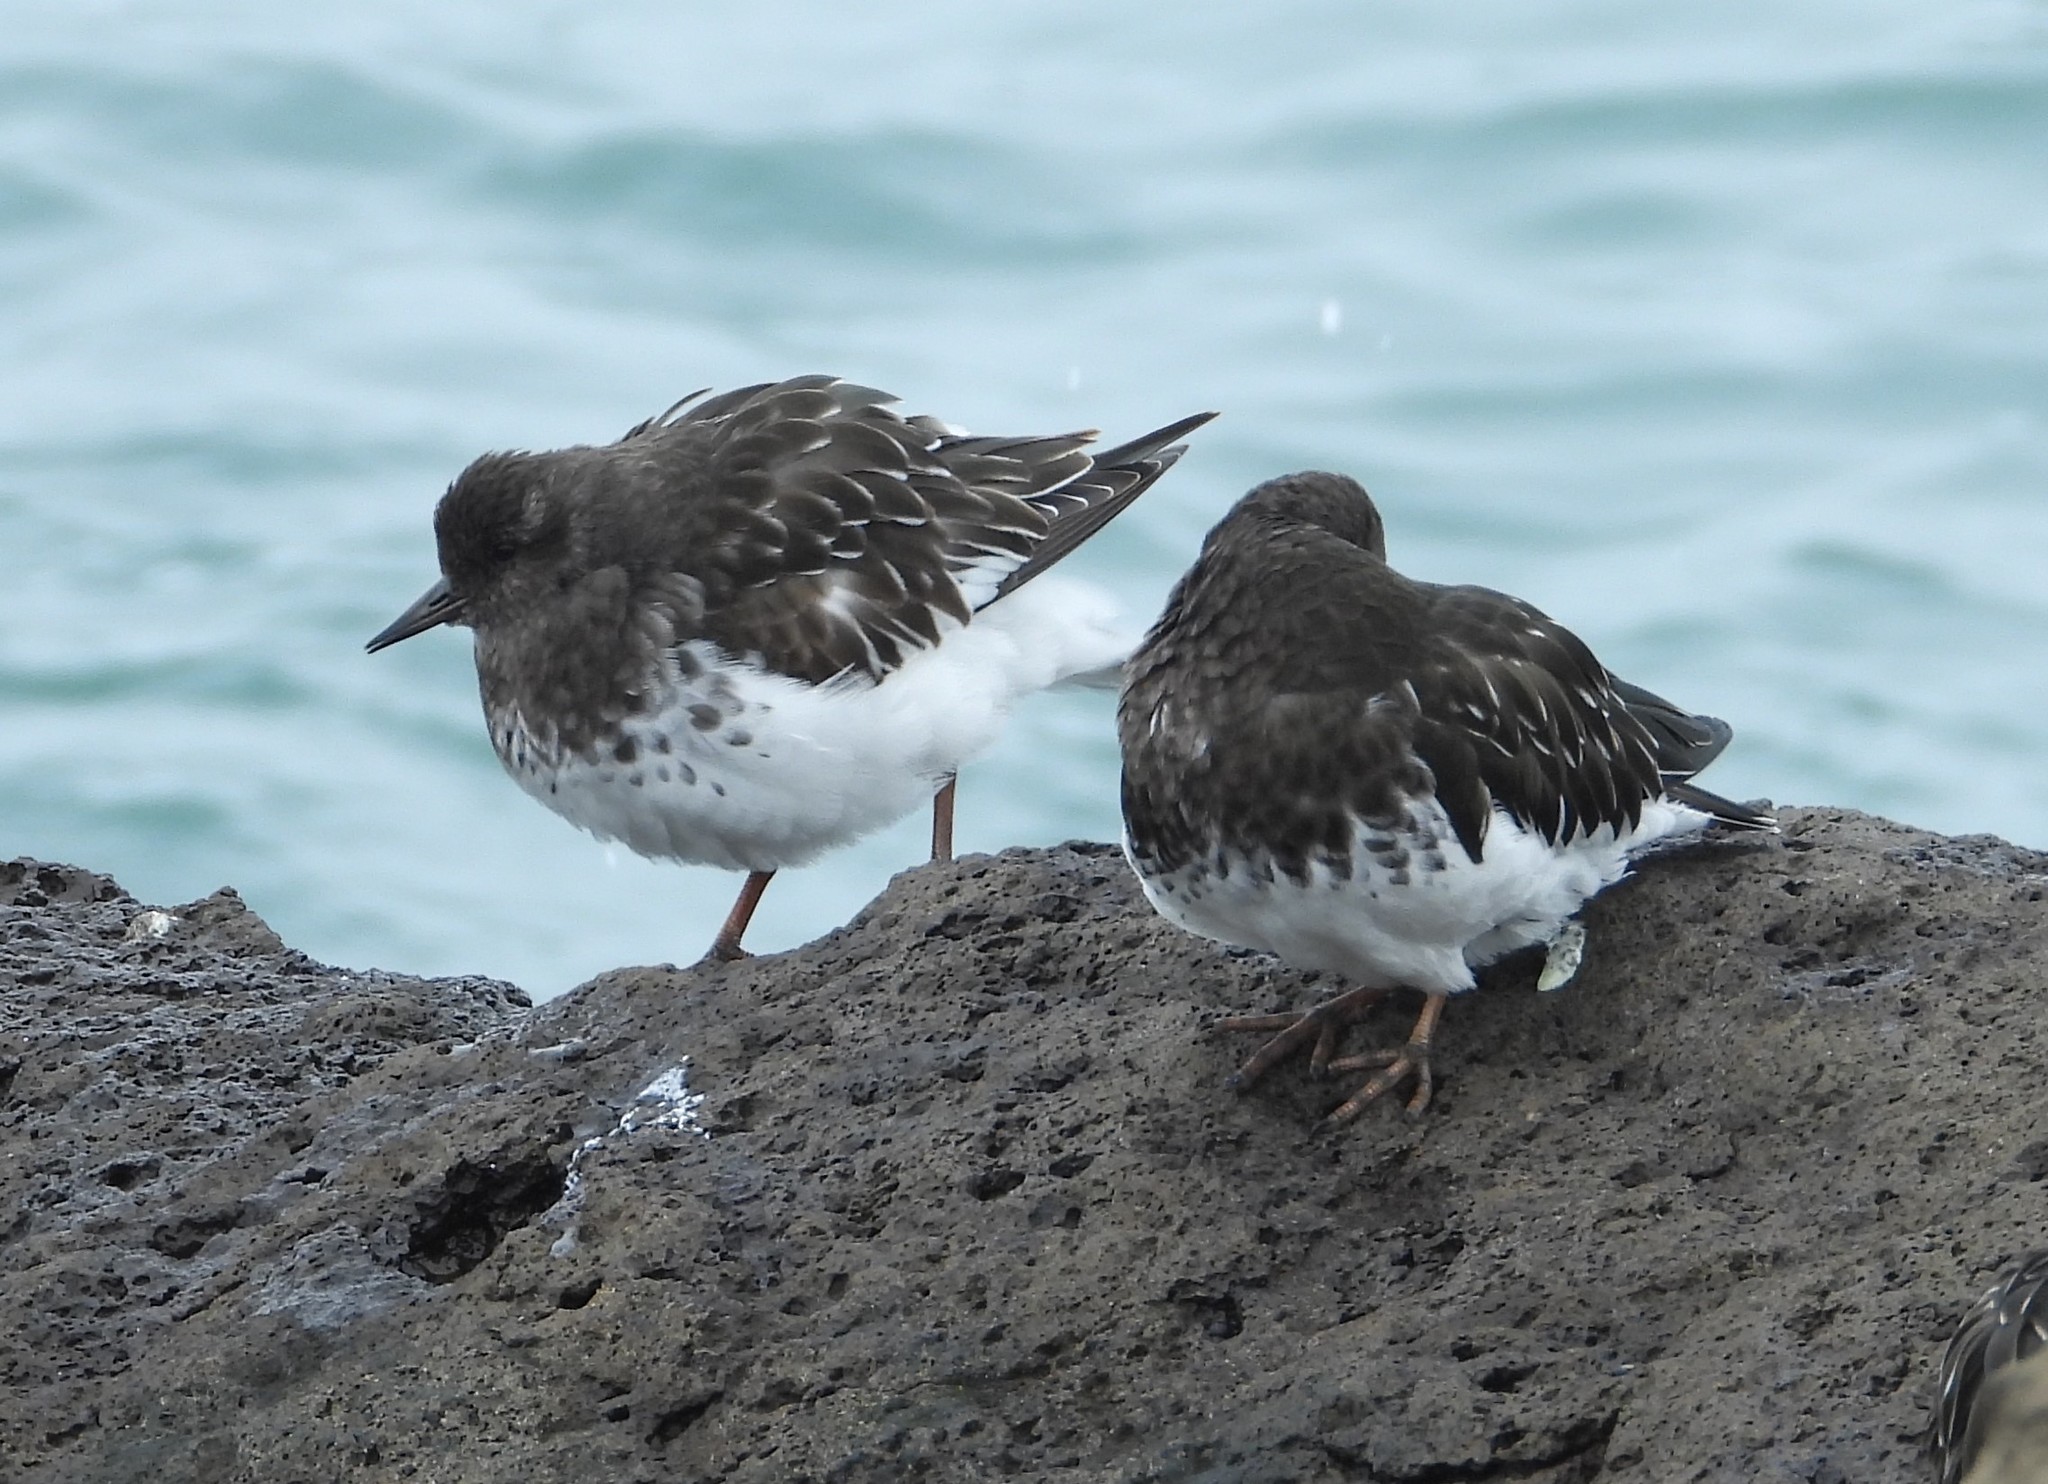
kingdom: Animalia
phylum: Chordata
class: Aves
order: Charadriiformes
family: Scolopacidae
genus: Arenaria
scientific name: Arenaria melanocephala
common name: Black turnstone
